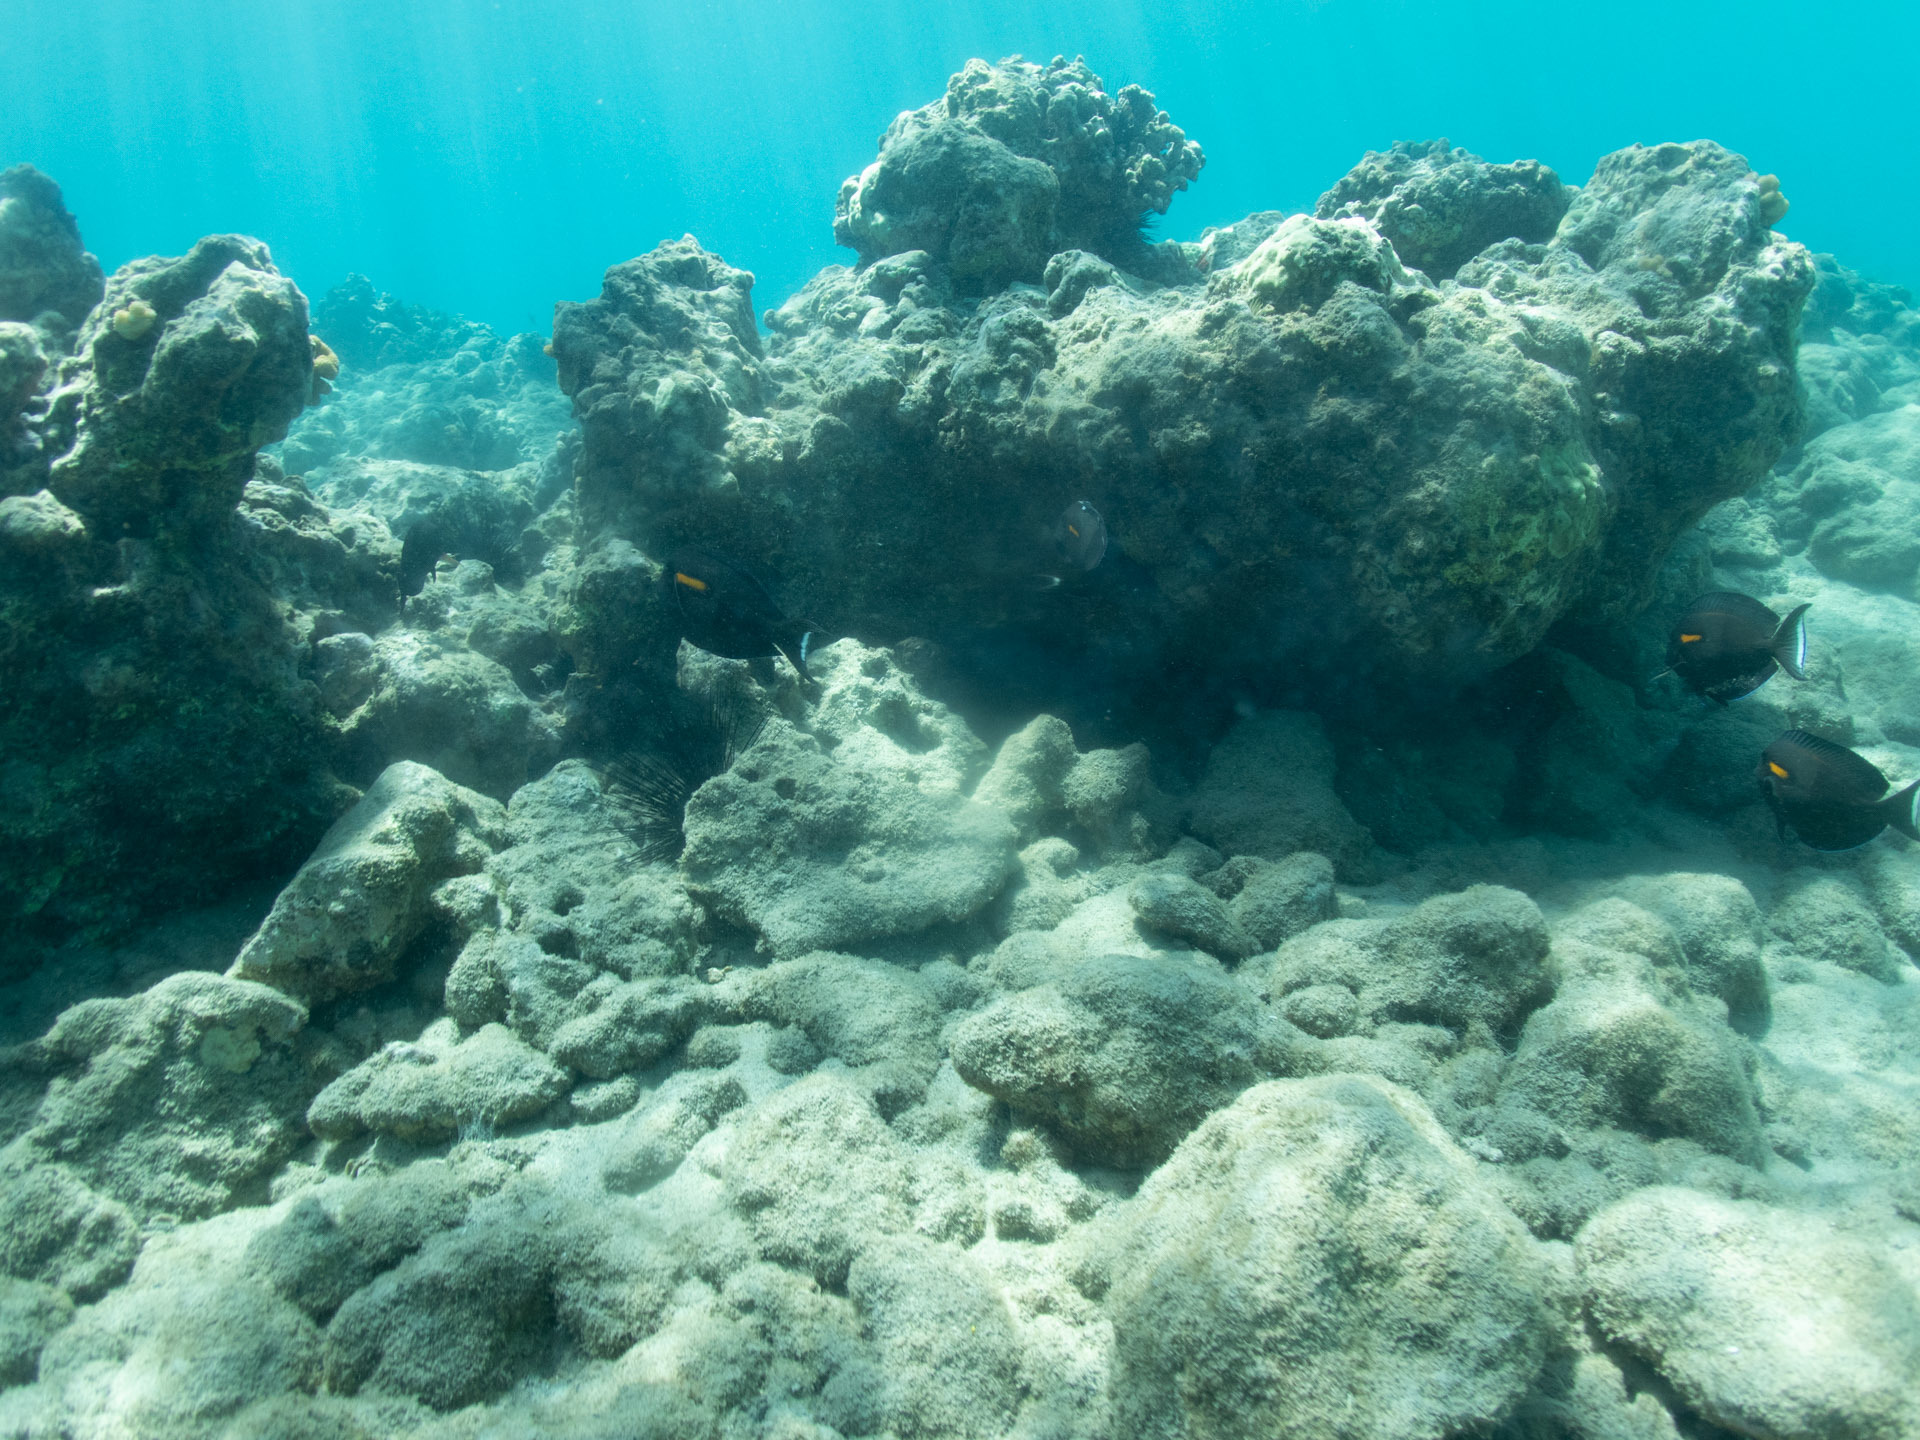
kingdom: Animalia
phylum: Chordata
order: Perciformes
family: Acanthuridae
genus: Acanthurus
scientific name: Acanthurus olivaceus
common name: Gendarme fish
